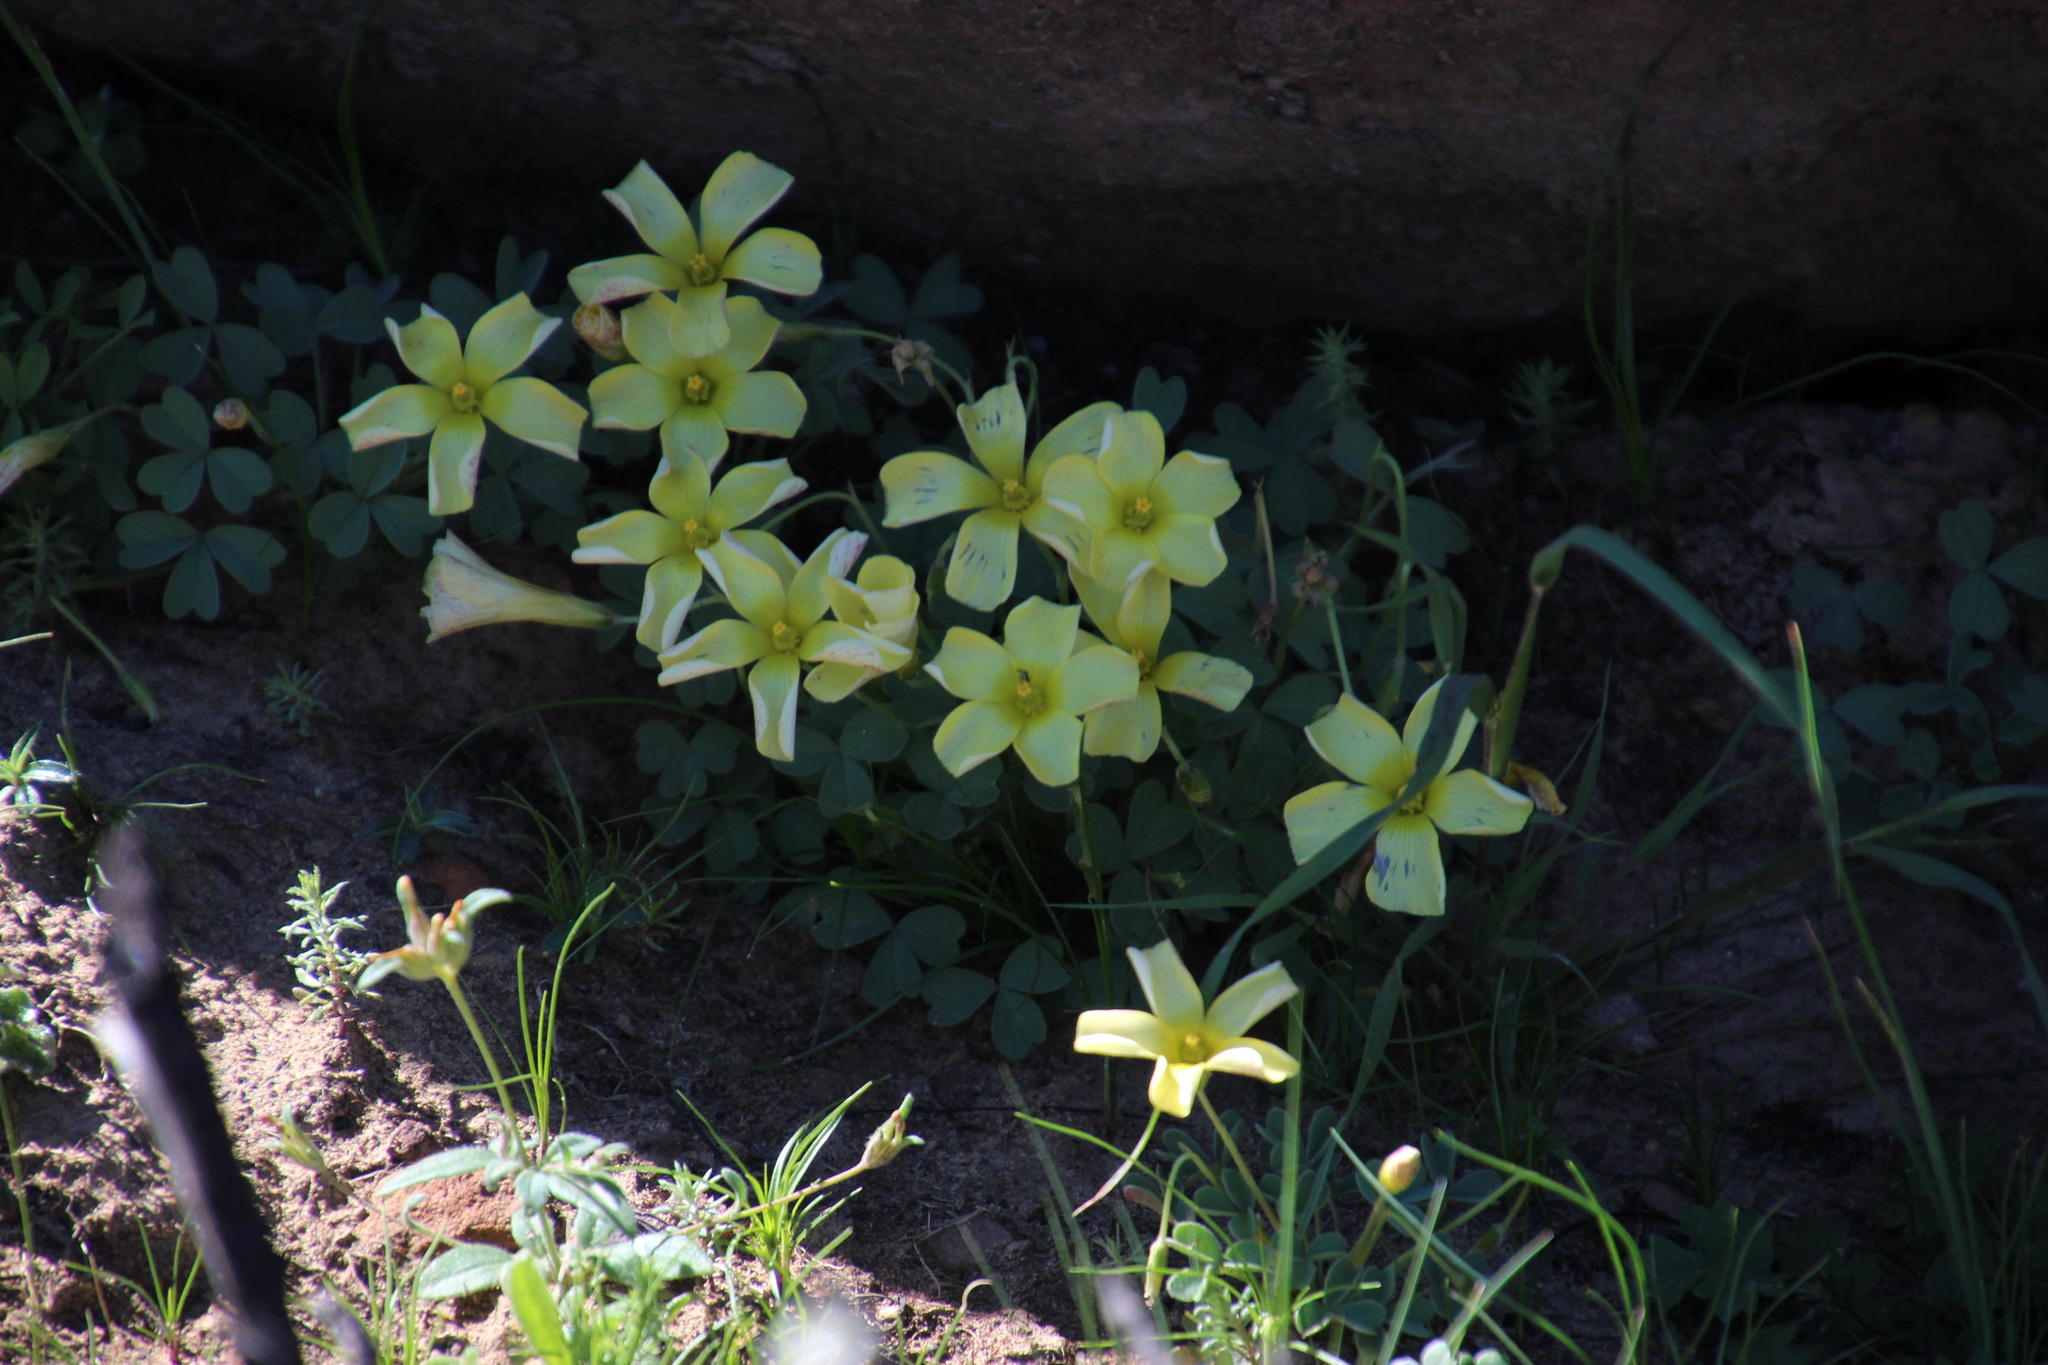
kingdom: Plantae
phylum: Tracheophyta
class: Magnoliopsida
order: Oxalidales
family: Oxalidaceae
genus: Oxalis
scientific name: Oxalis obtusa
